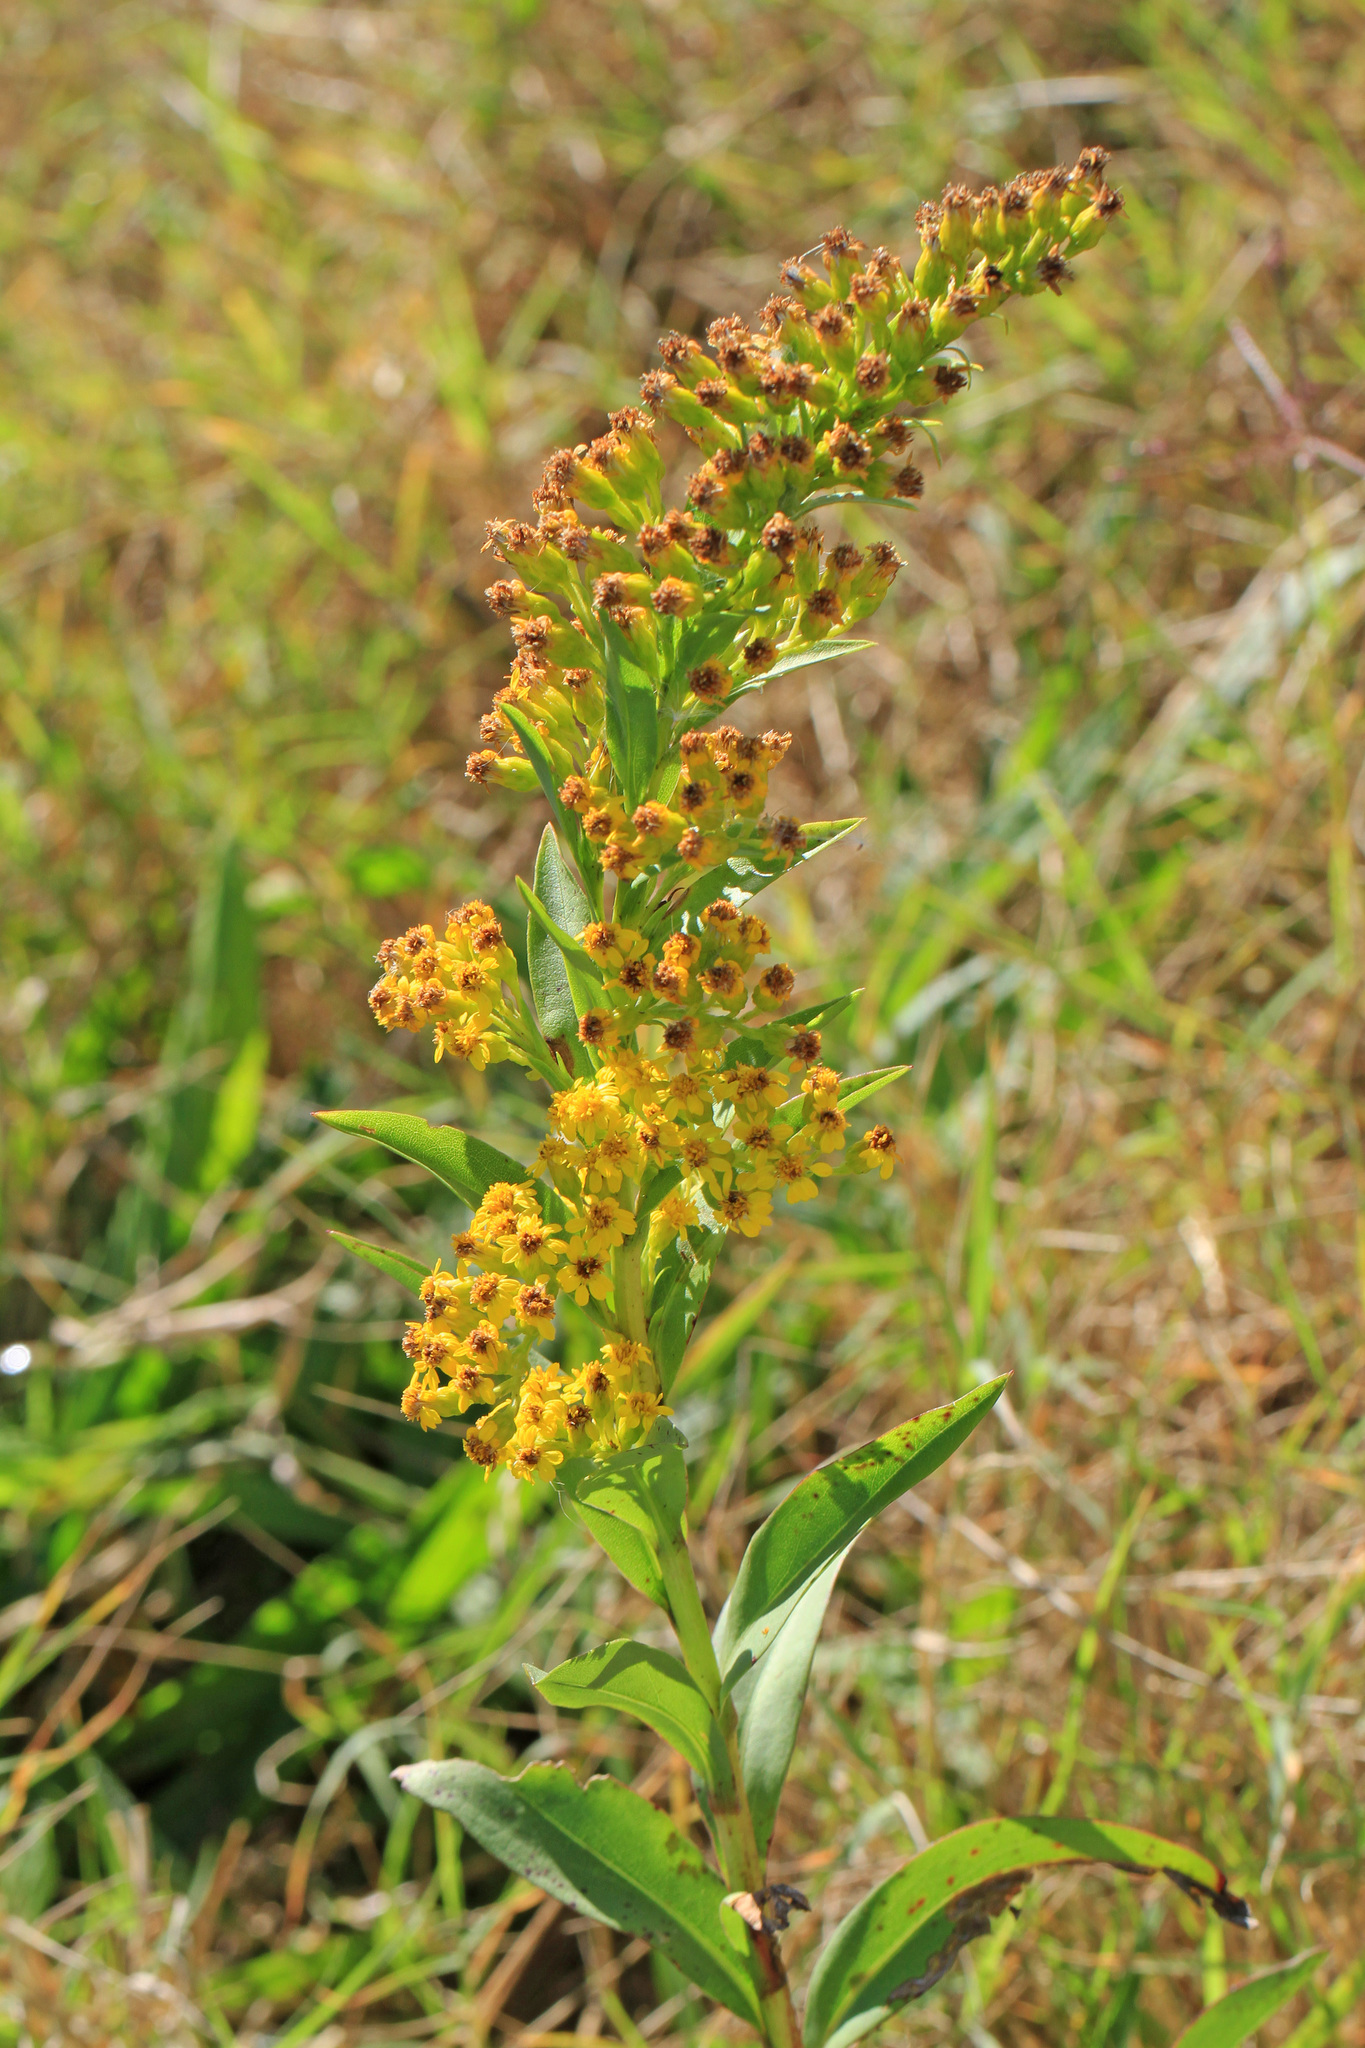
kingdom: Plantae
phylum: Tracheophyta
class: Magnoliopsida
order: Asterales
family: Asteraceae
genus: Solidago
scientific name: Solidago sempervirens
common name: Salt-marsh goldenrod
